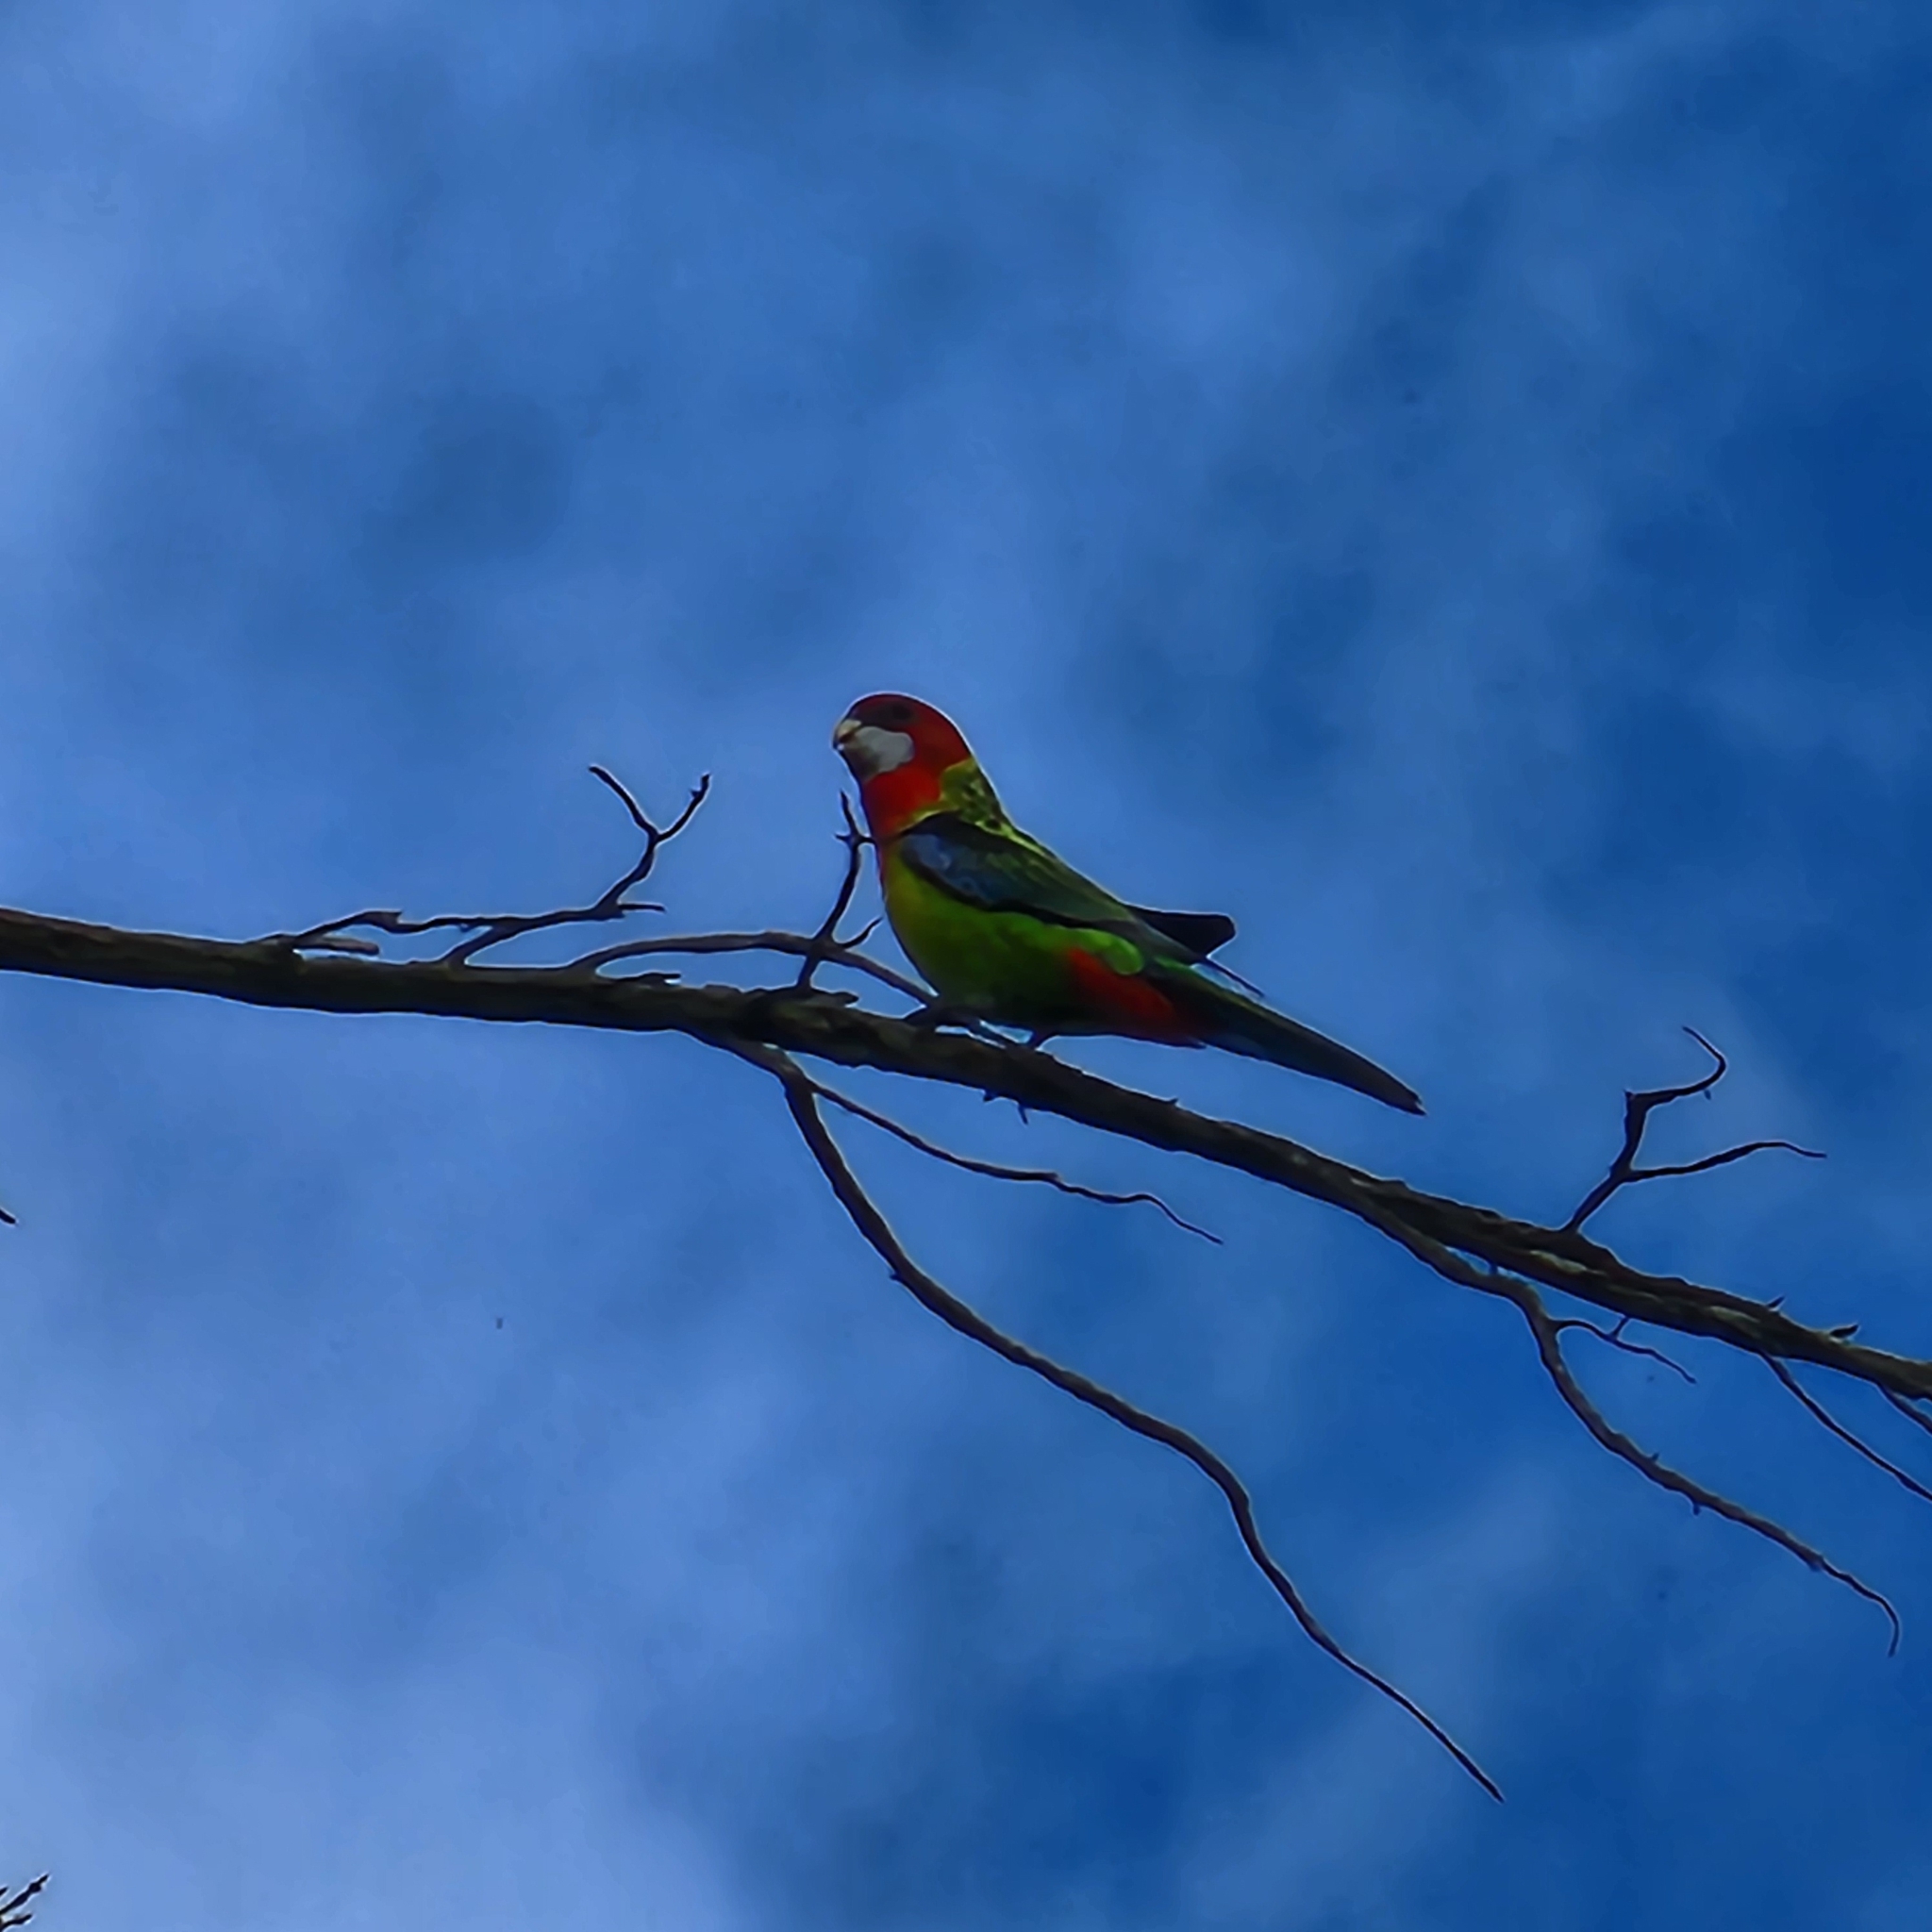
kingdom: Animalia
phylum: Chordata
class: Aves
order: Psittaciformes
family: Psittacidae
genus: Platycercus
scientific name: Platycercus eximius
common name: Eastern rosella
